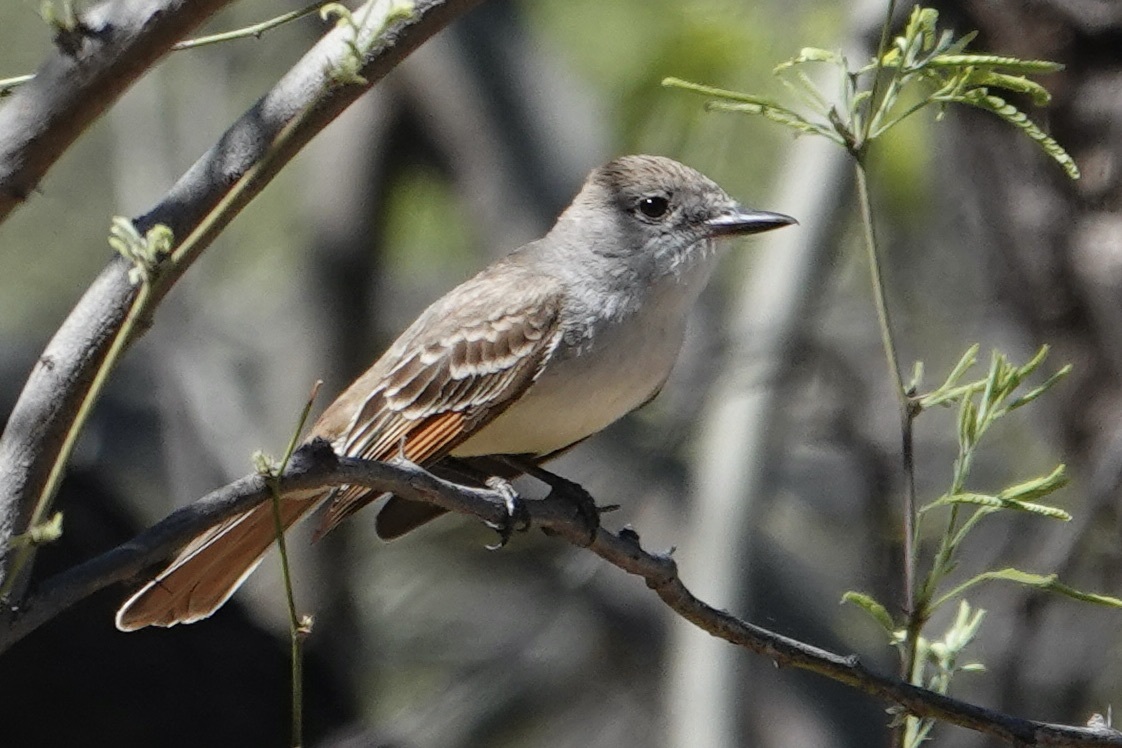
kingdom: Animalia
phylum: Chordata
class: Aves
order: Passeriformes
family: Tyrannidae
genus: Myiarchus
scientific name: Myiarchus cinerascens
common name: Ash-throated flycatcher
